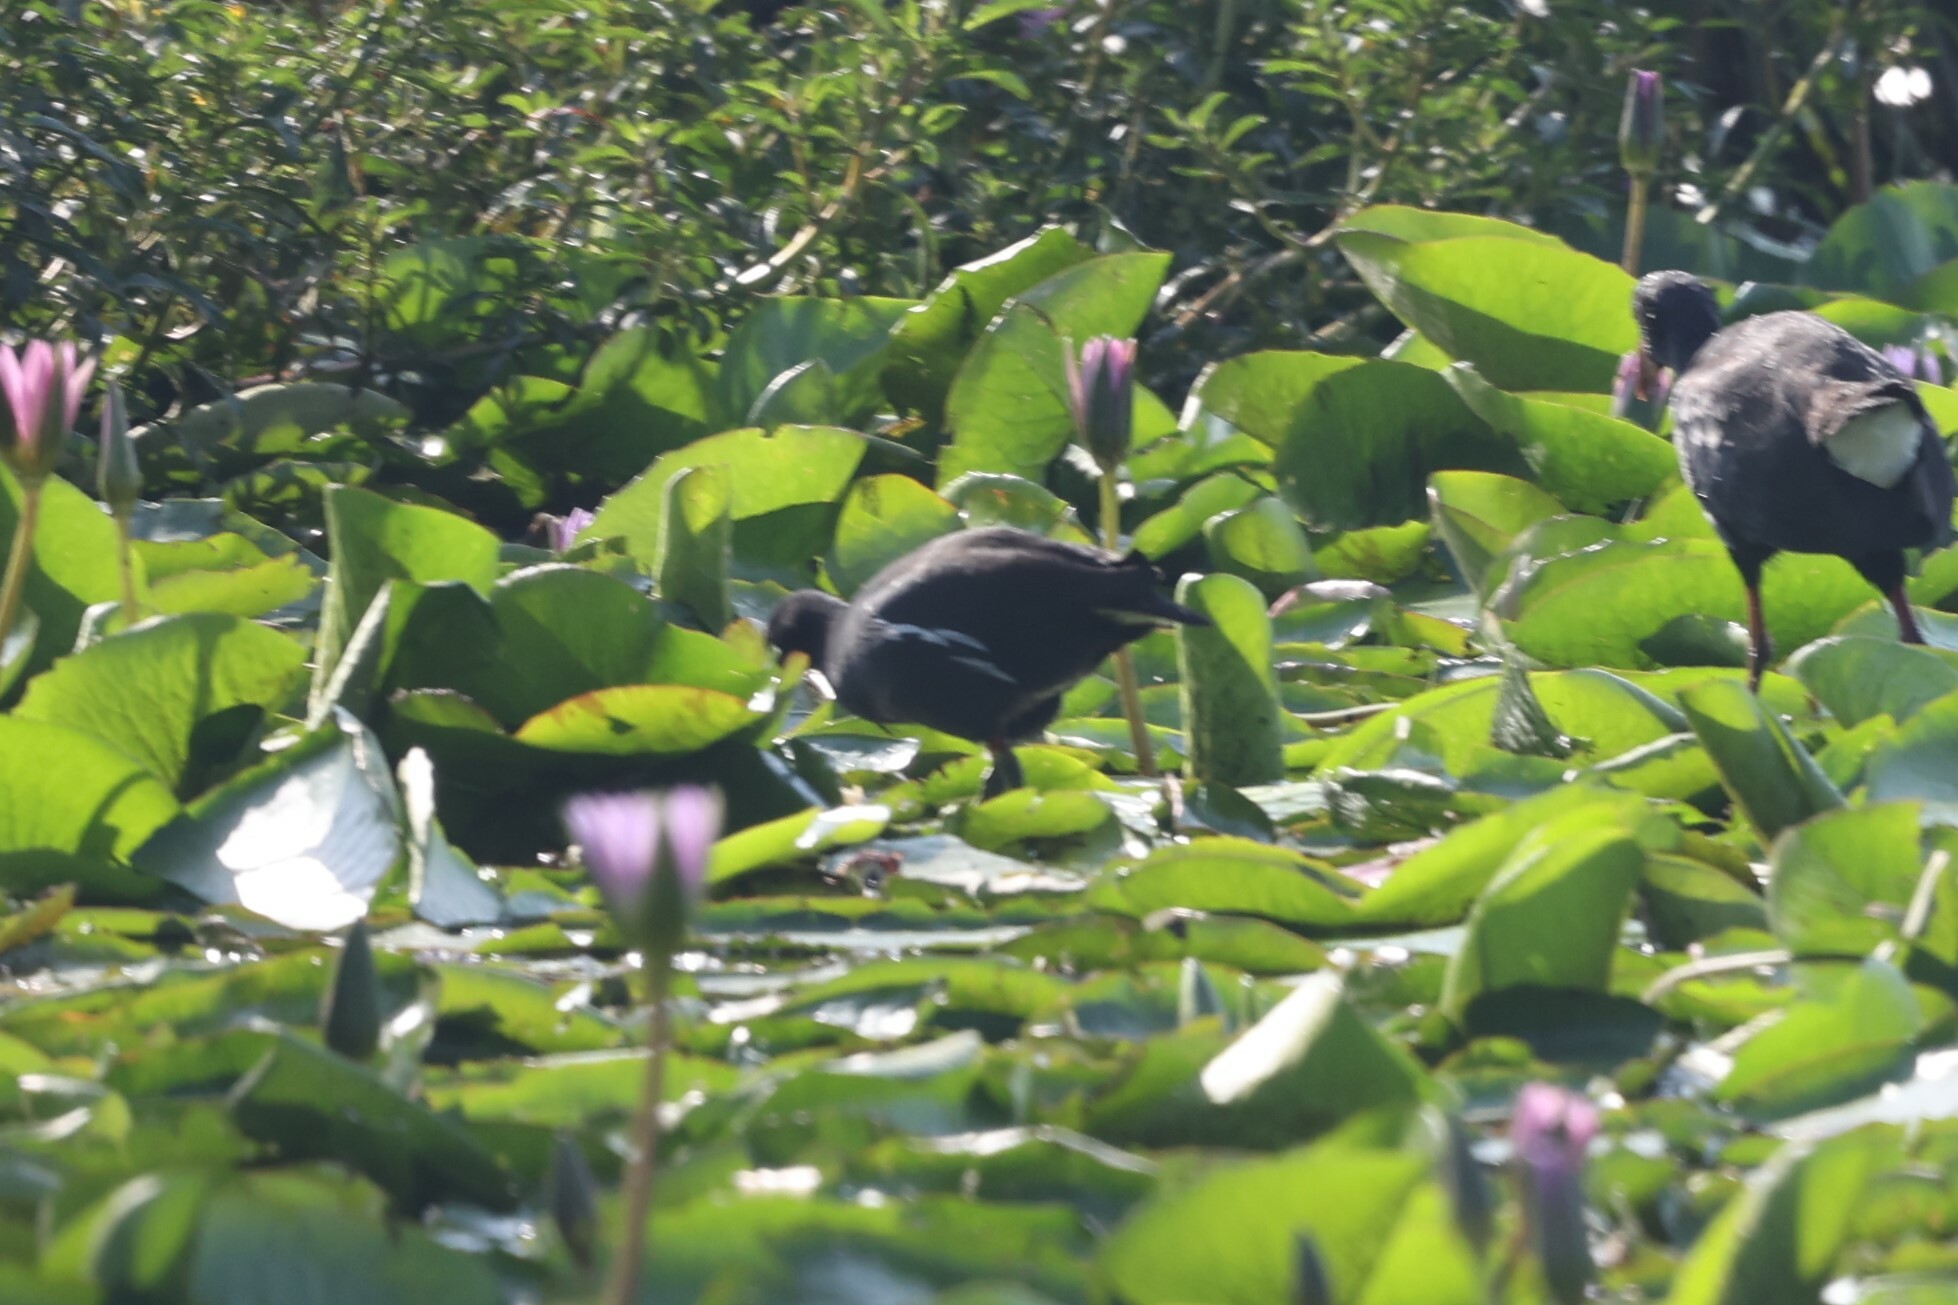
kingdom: Animalia
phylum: Chordata
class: Aves
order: Gruiformes
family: Rallidae
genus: Gallinula
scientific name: Gallinula chloropus
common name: Common moorhen
